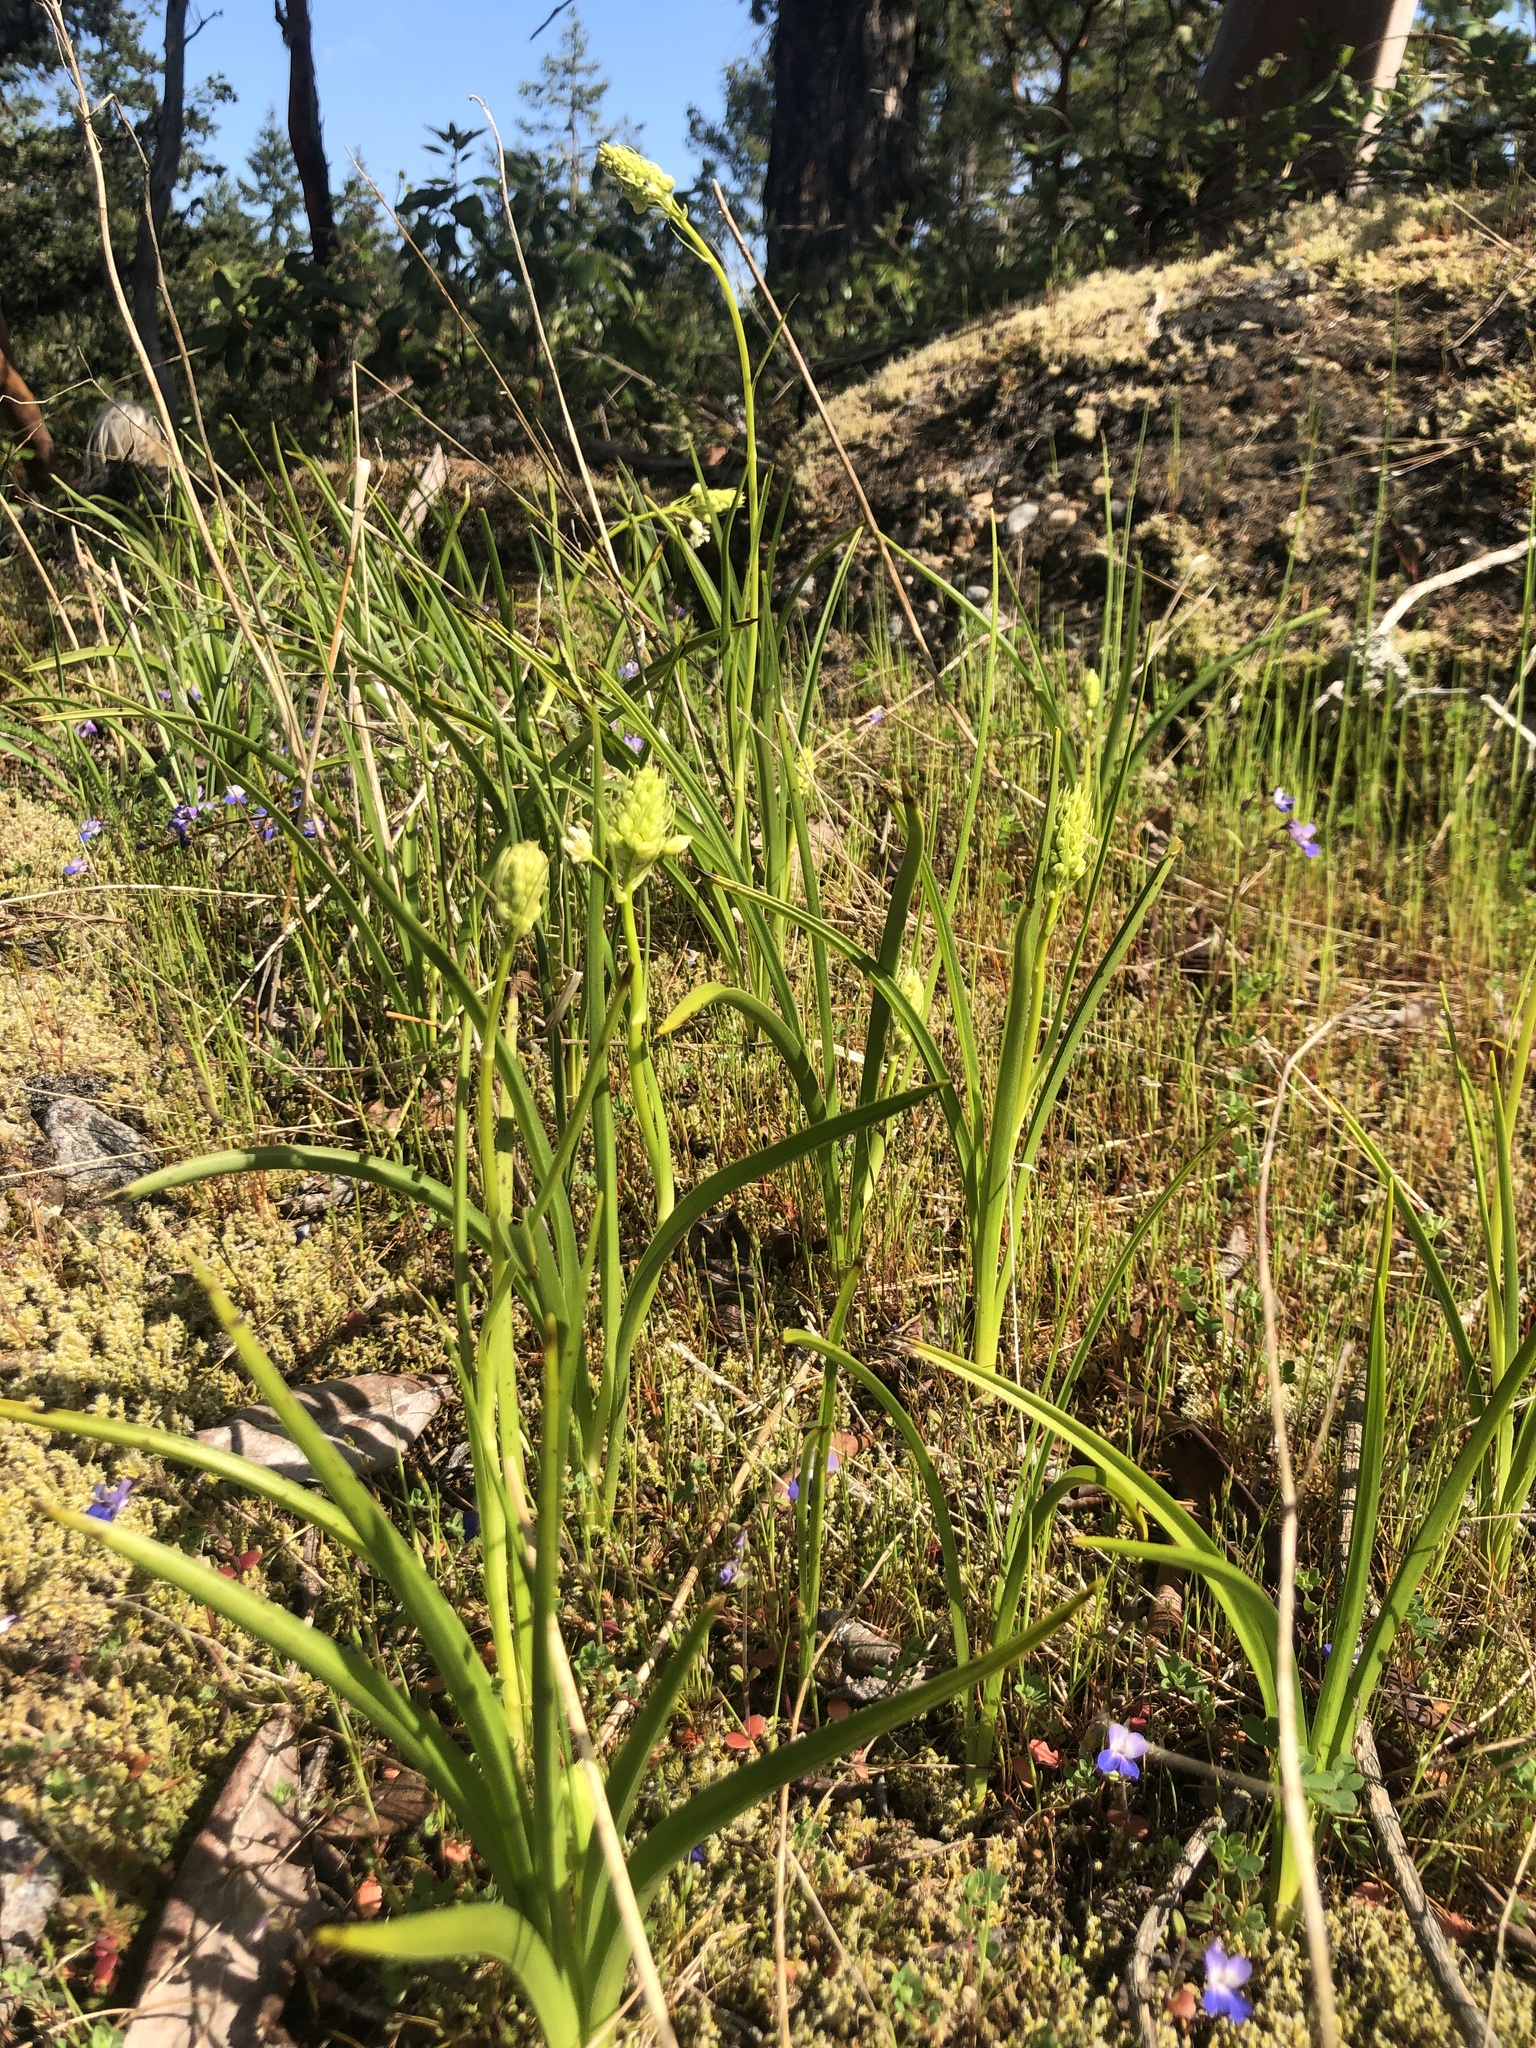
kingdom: Plantae
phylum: Tracheophyta
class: Liliopsida
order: Liliales
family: Melanthiaceae
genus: Toxicoscordion
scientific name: Toxicoscordion venenosum
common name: Meadow death camas
